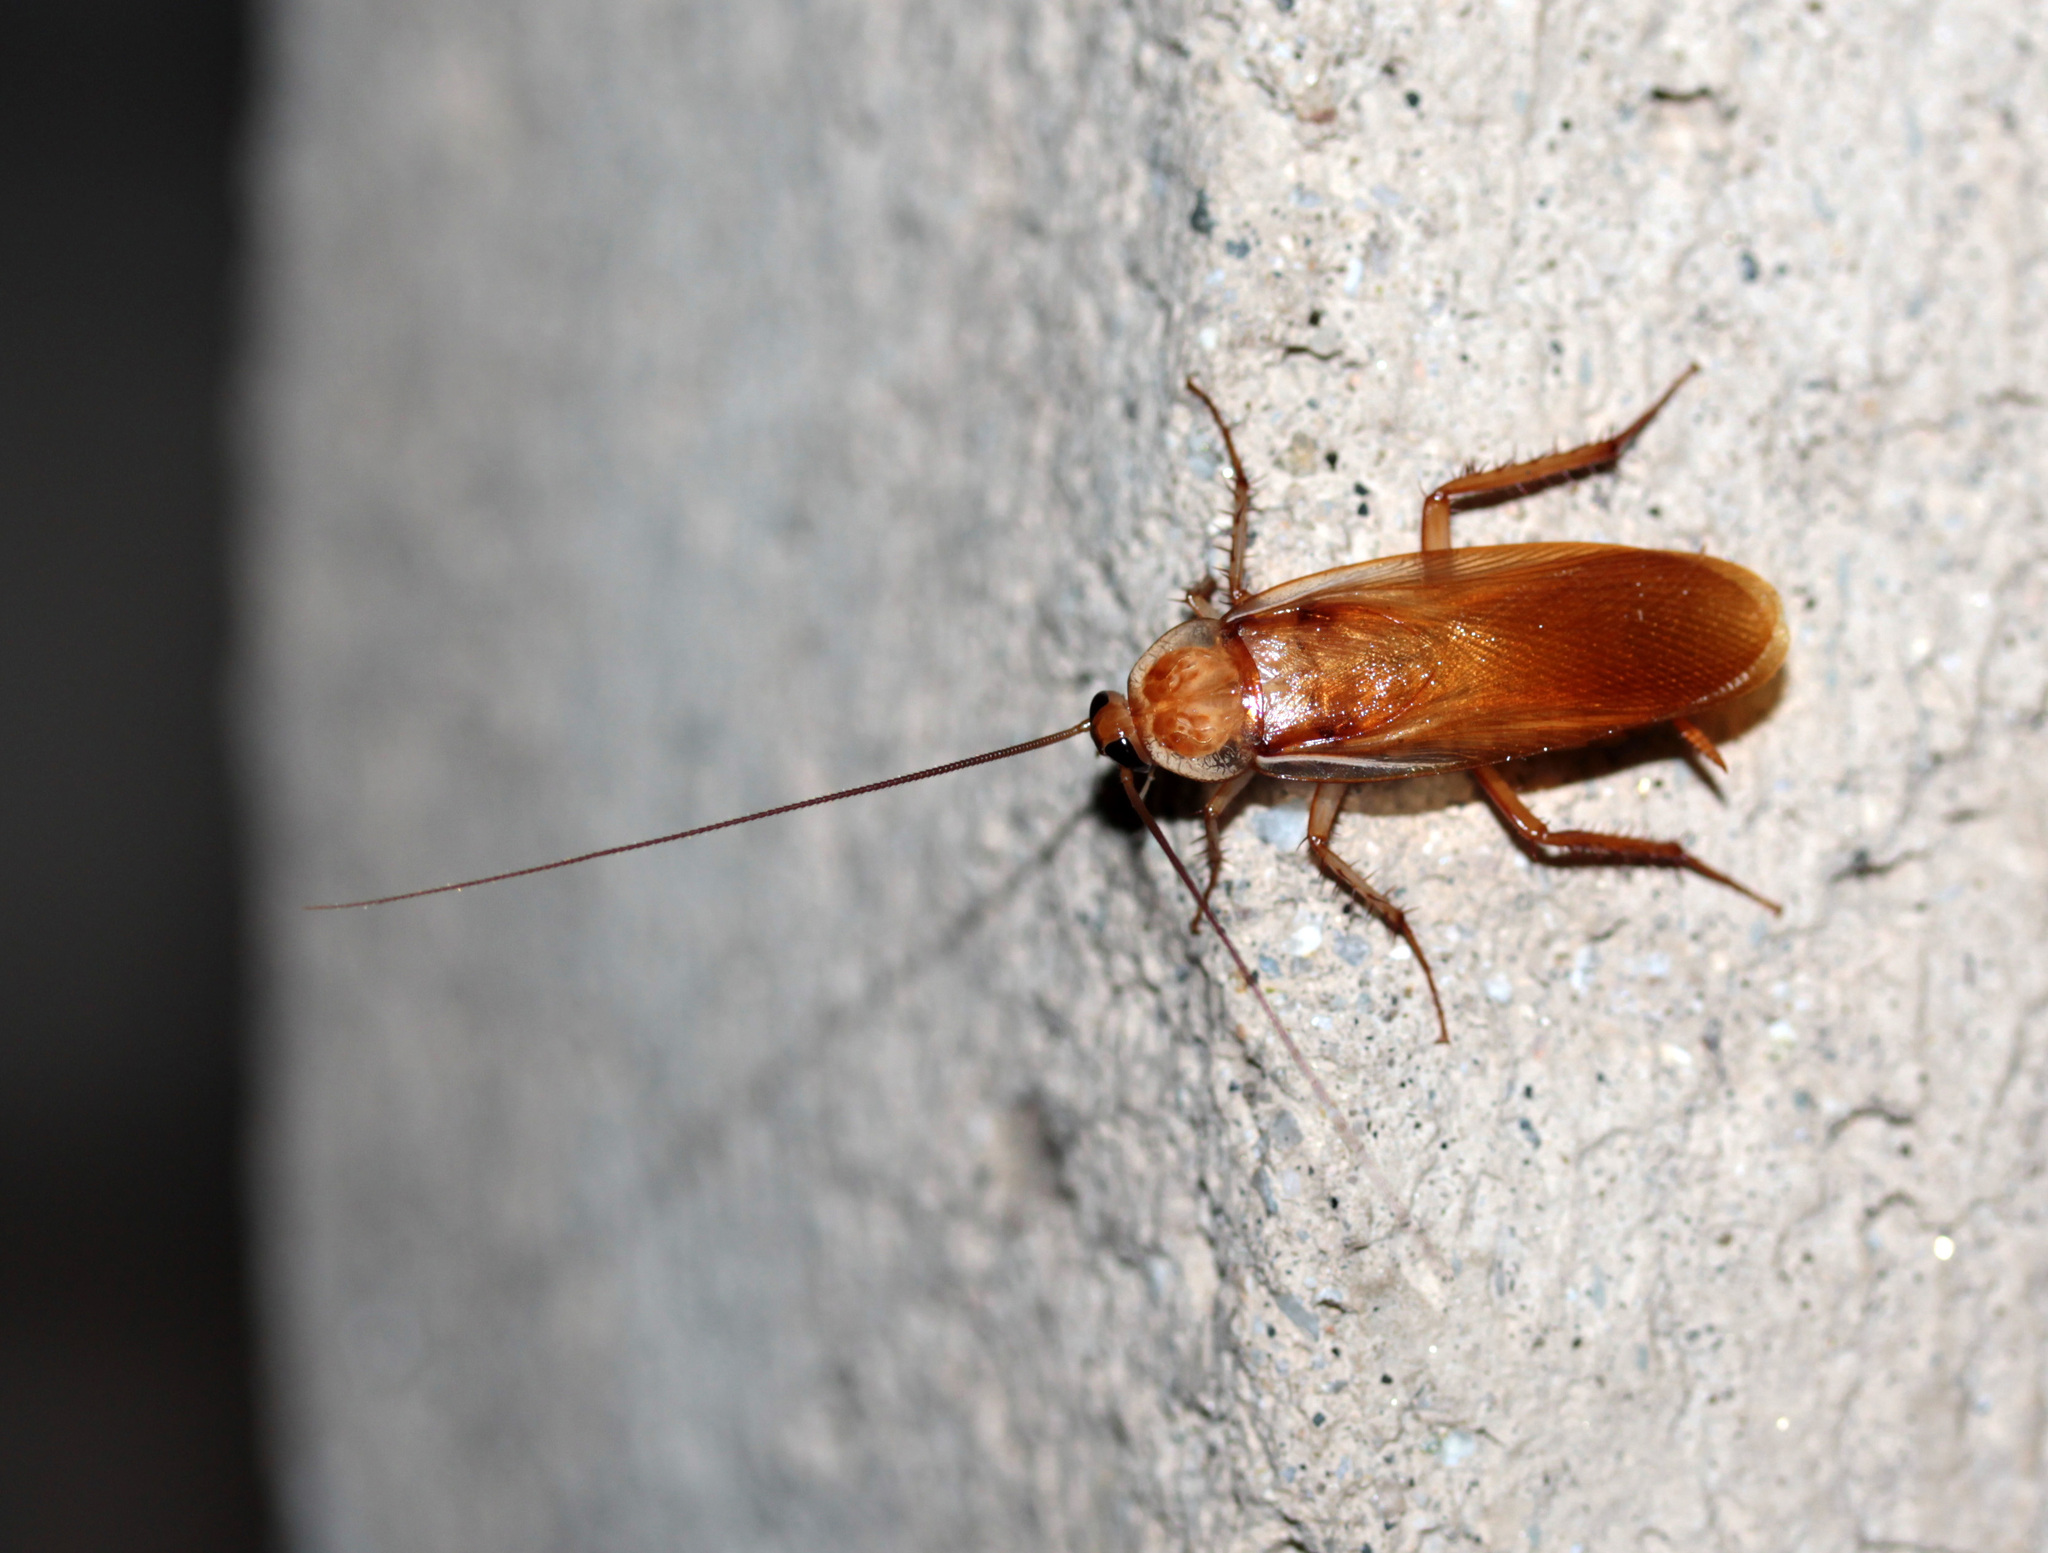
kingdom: Animalia
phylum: Arthropoda
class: Insecta
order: Blattodea
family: Blattidae
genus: Periplaneta
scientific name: Periplaneta lateralis
